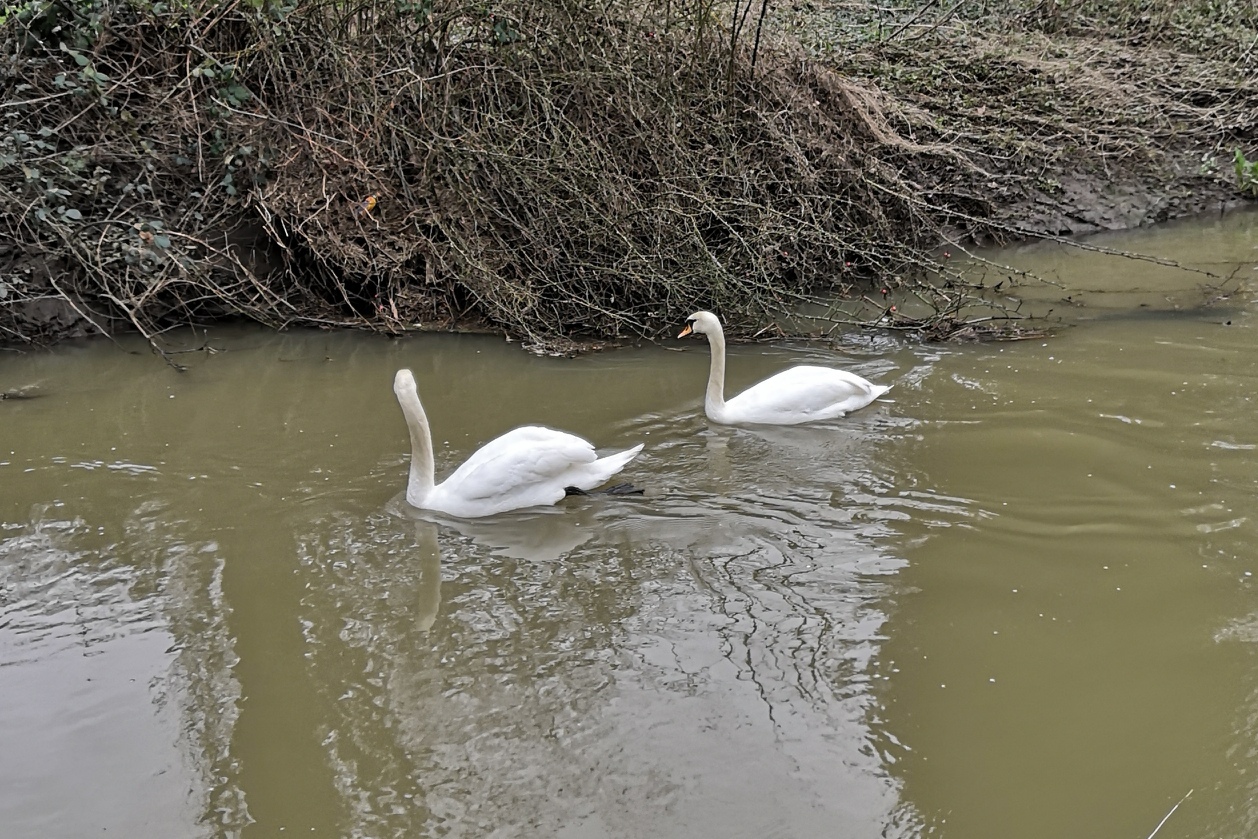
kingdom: Animalia
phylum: Chordata
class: Aves
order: Anseriformes
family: Anatidae
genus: Cygnus
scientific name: Cygnus olor
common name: Mute swan
